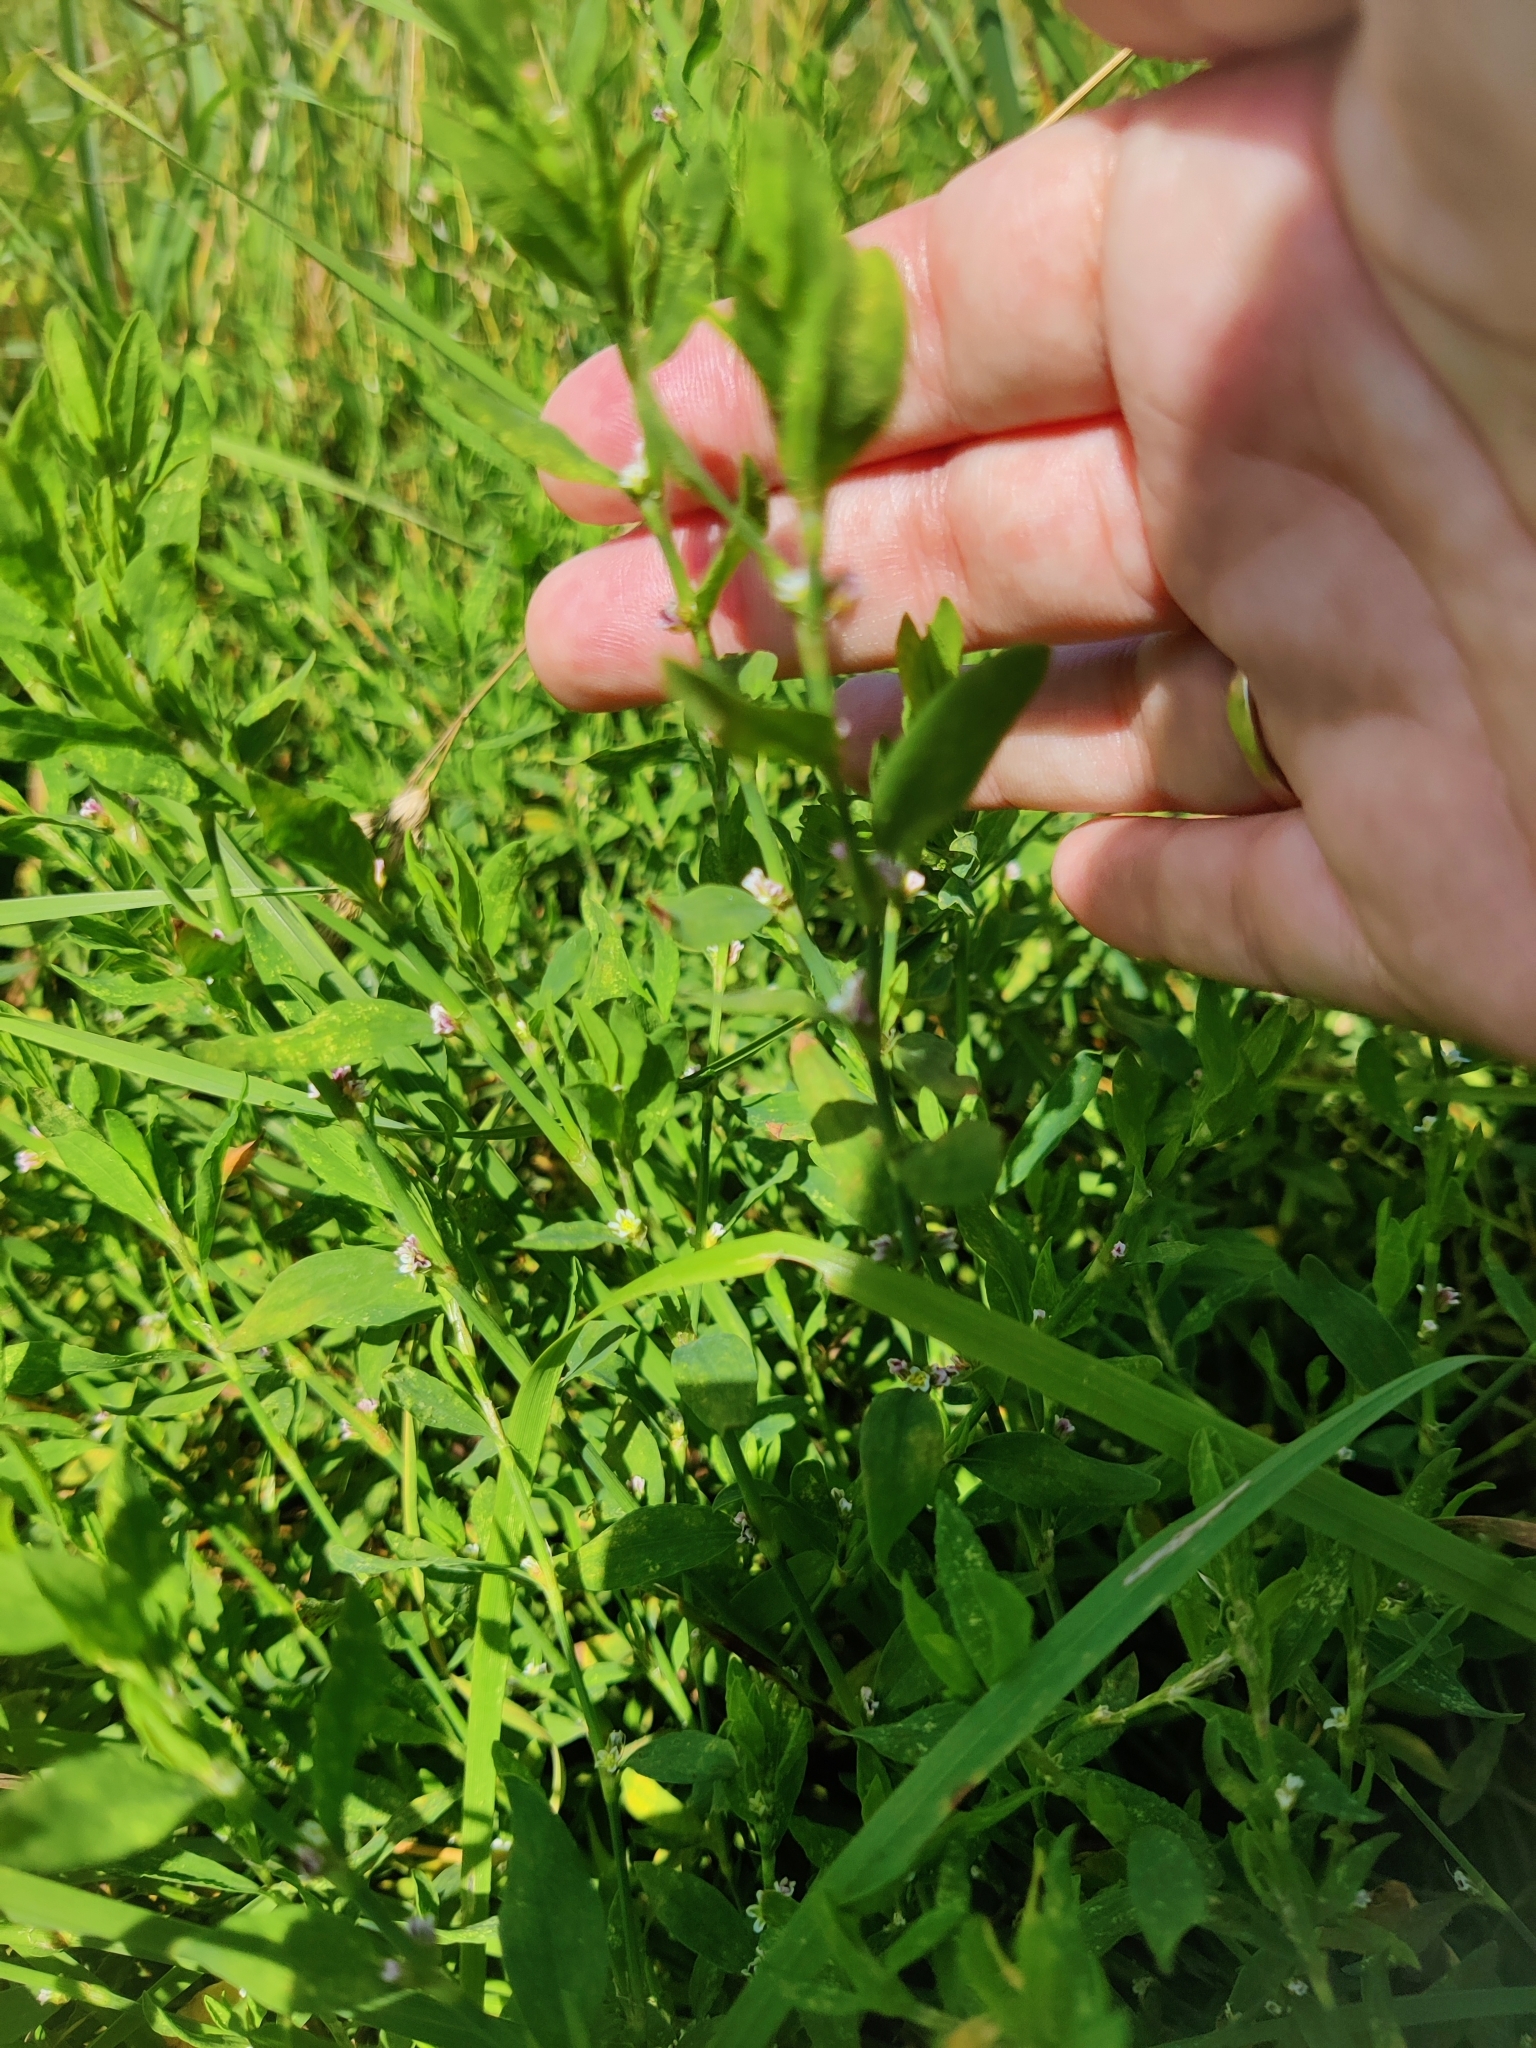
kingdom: Plantae
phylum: Tracheophyta
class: Magnoliopsida
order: Caryophyllales
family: Polygonaceae
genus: Polygonum
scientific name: Polygonum
